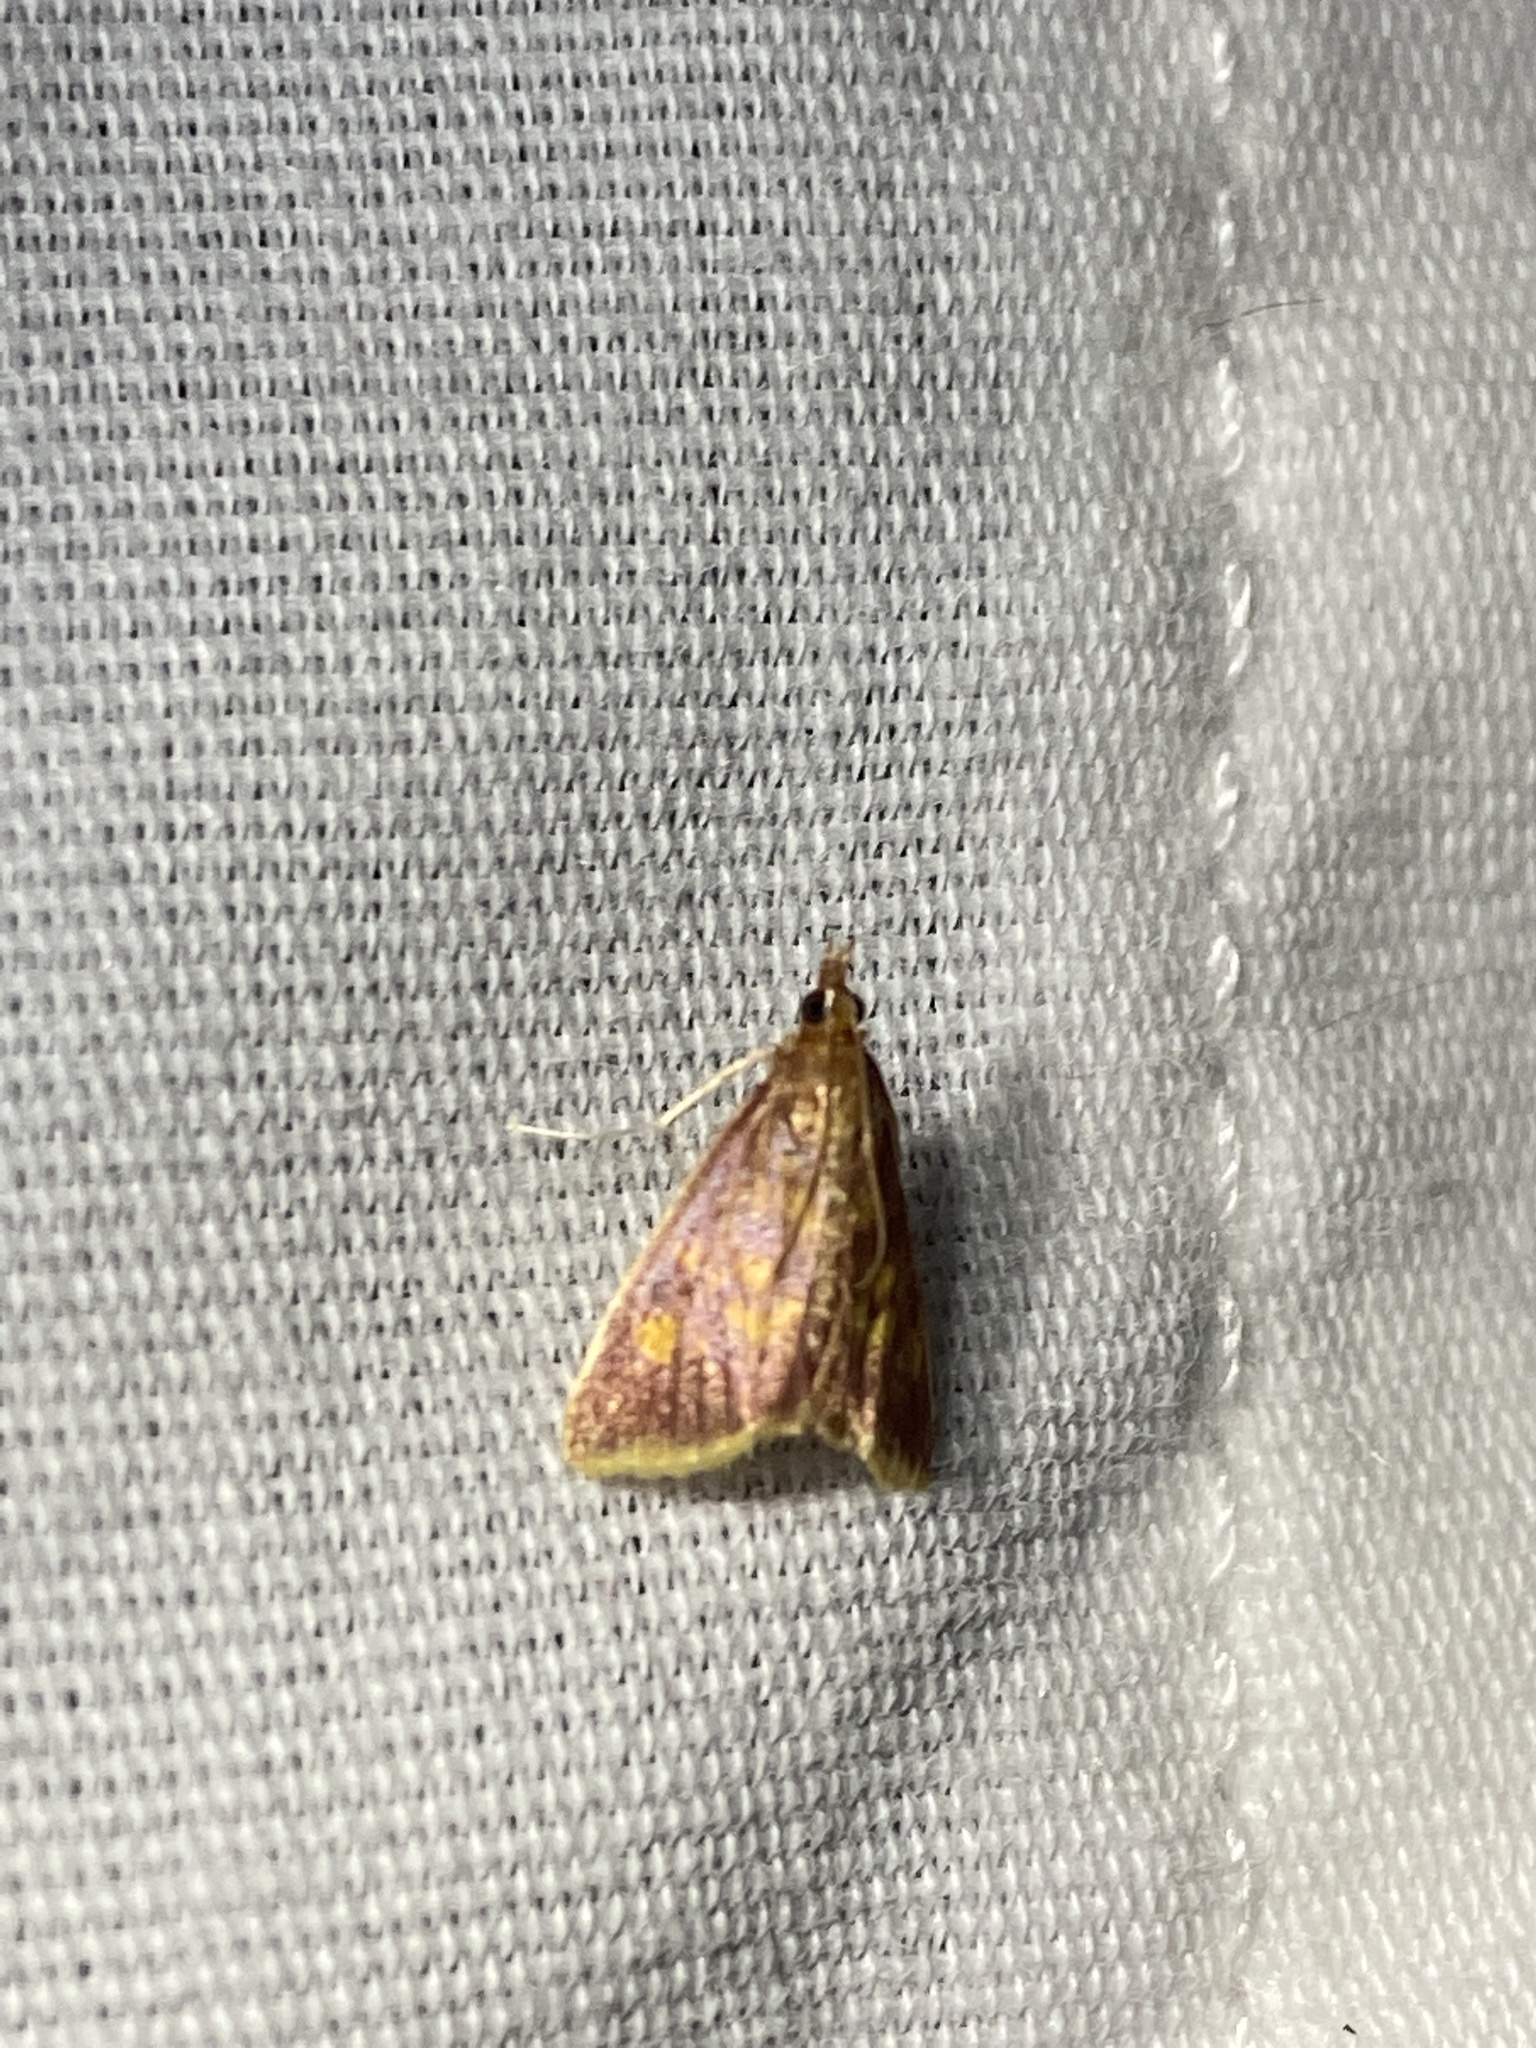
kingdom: Animalia
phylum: Arthropoda
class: Insecta
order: Lepidoptera
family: Crambidae
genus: Pyrausta
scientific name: Pyrausta acrionalis
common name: Mint-loving pyrausta moth
